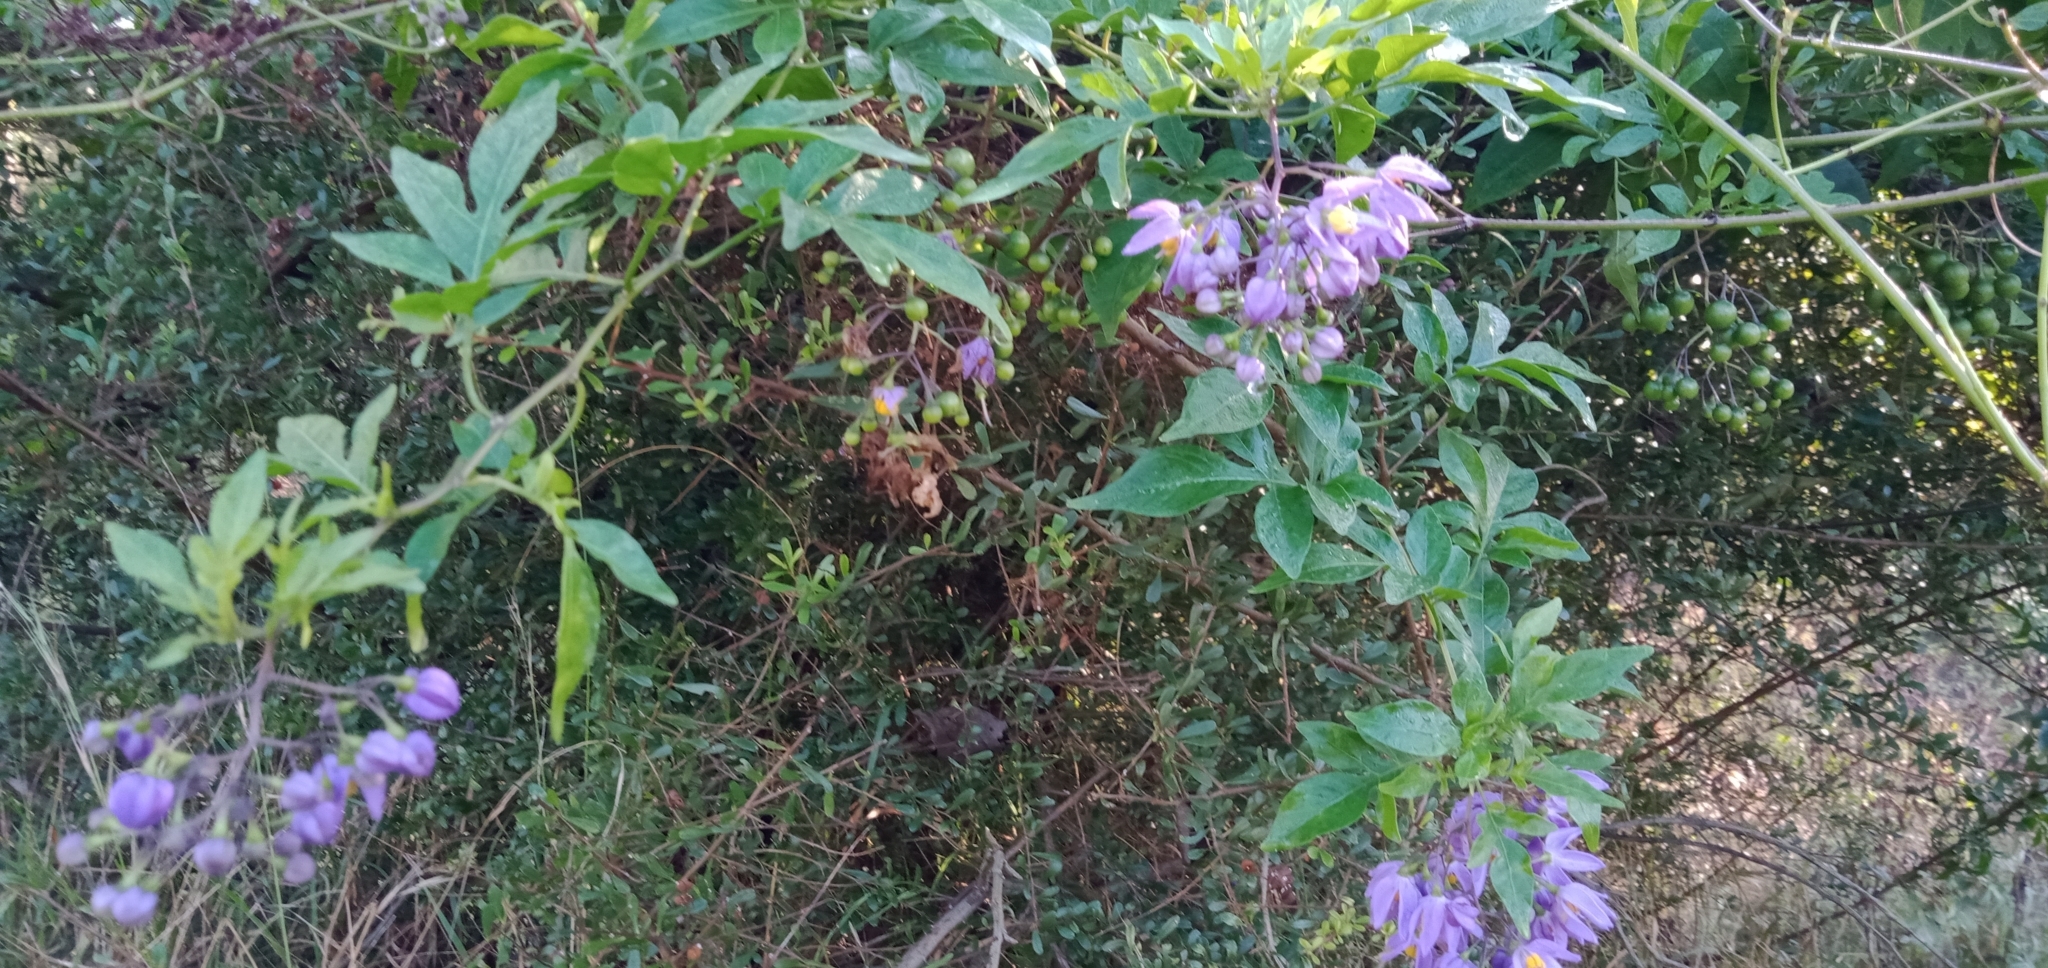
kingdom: Plantae
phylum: Tracheophyta
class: Magnoliopsida
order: Solanales
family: Solanaceae
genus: Solanum
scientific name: Solanum seaforthianum
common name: Brazilian nightshade
